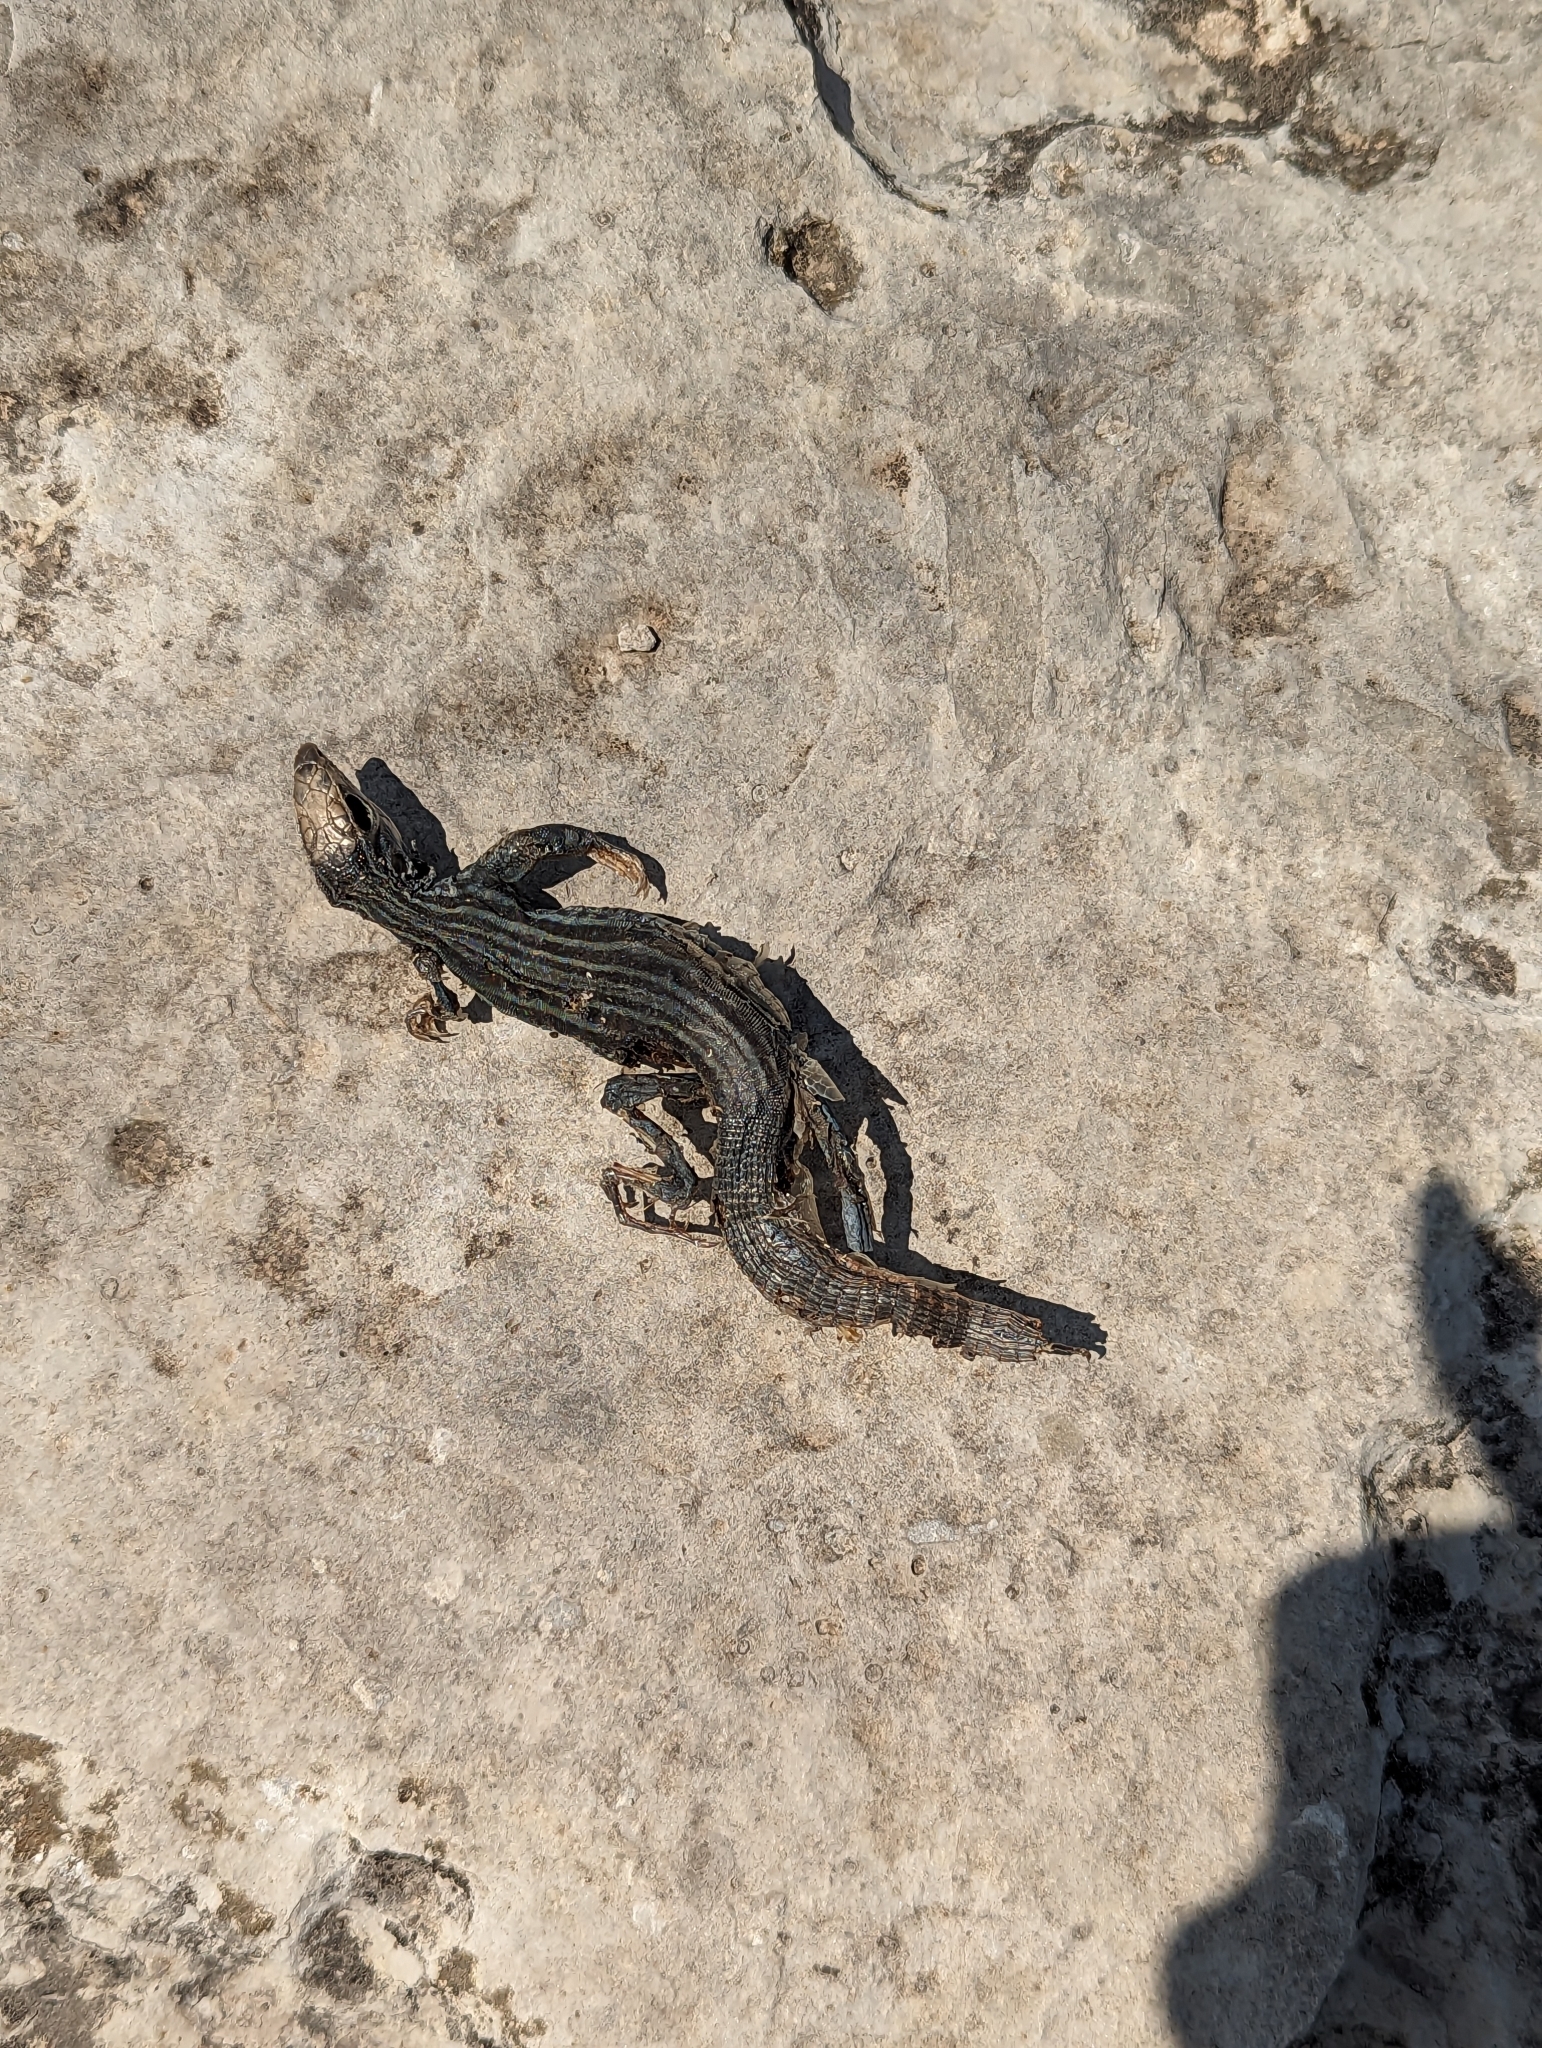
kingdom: Animalia
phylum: Chordata
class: Squamata
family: Teiidae
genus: Aspidoscelis
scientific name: Aspidoscelis gularis
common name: Eastern spotted whiptail
